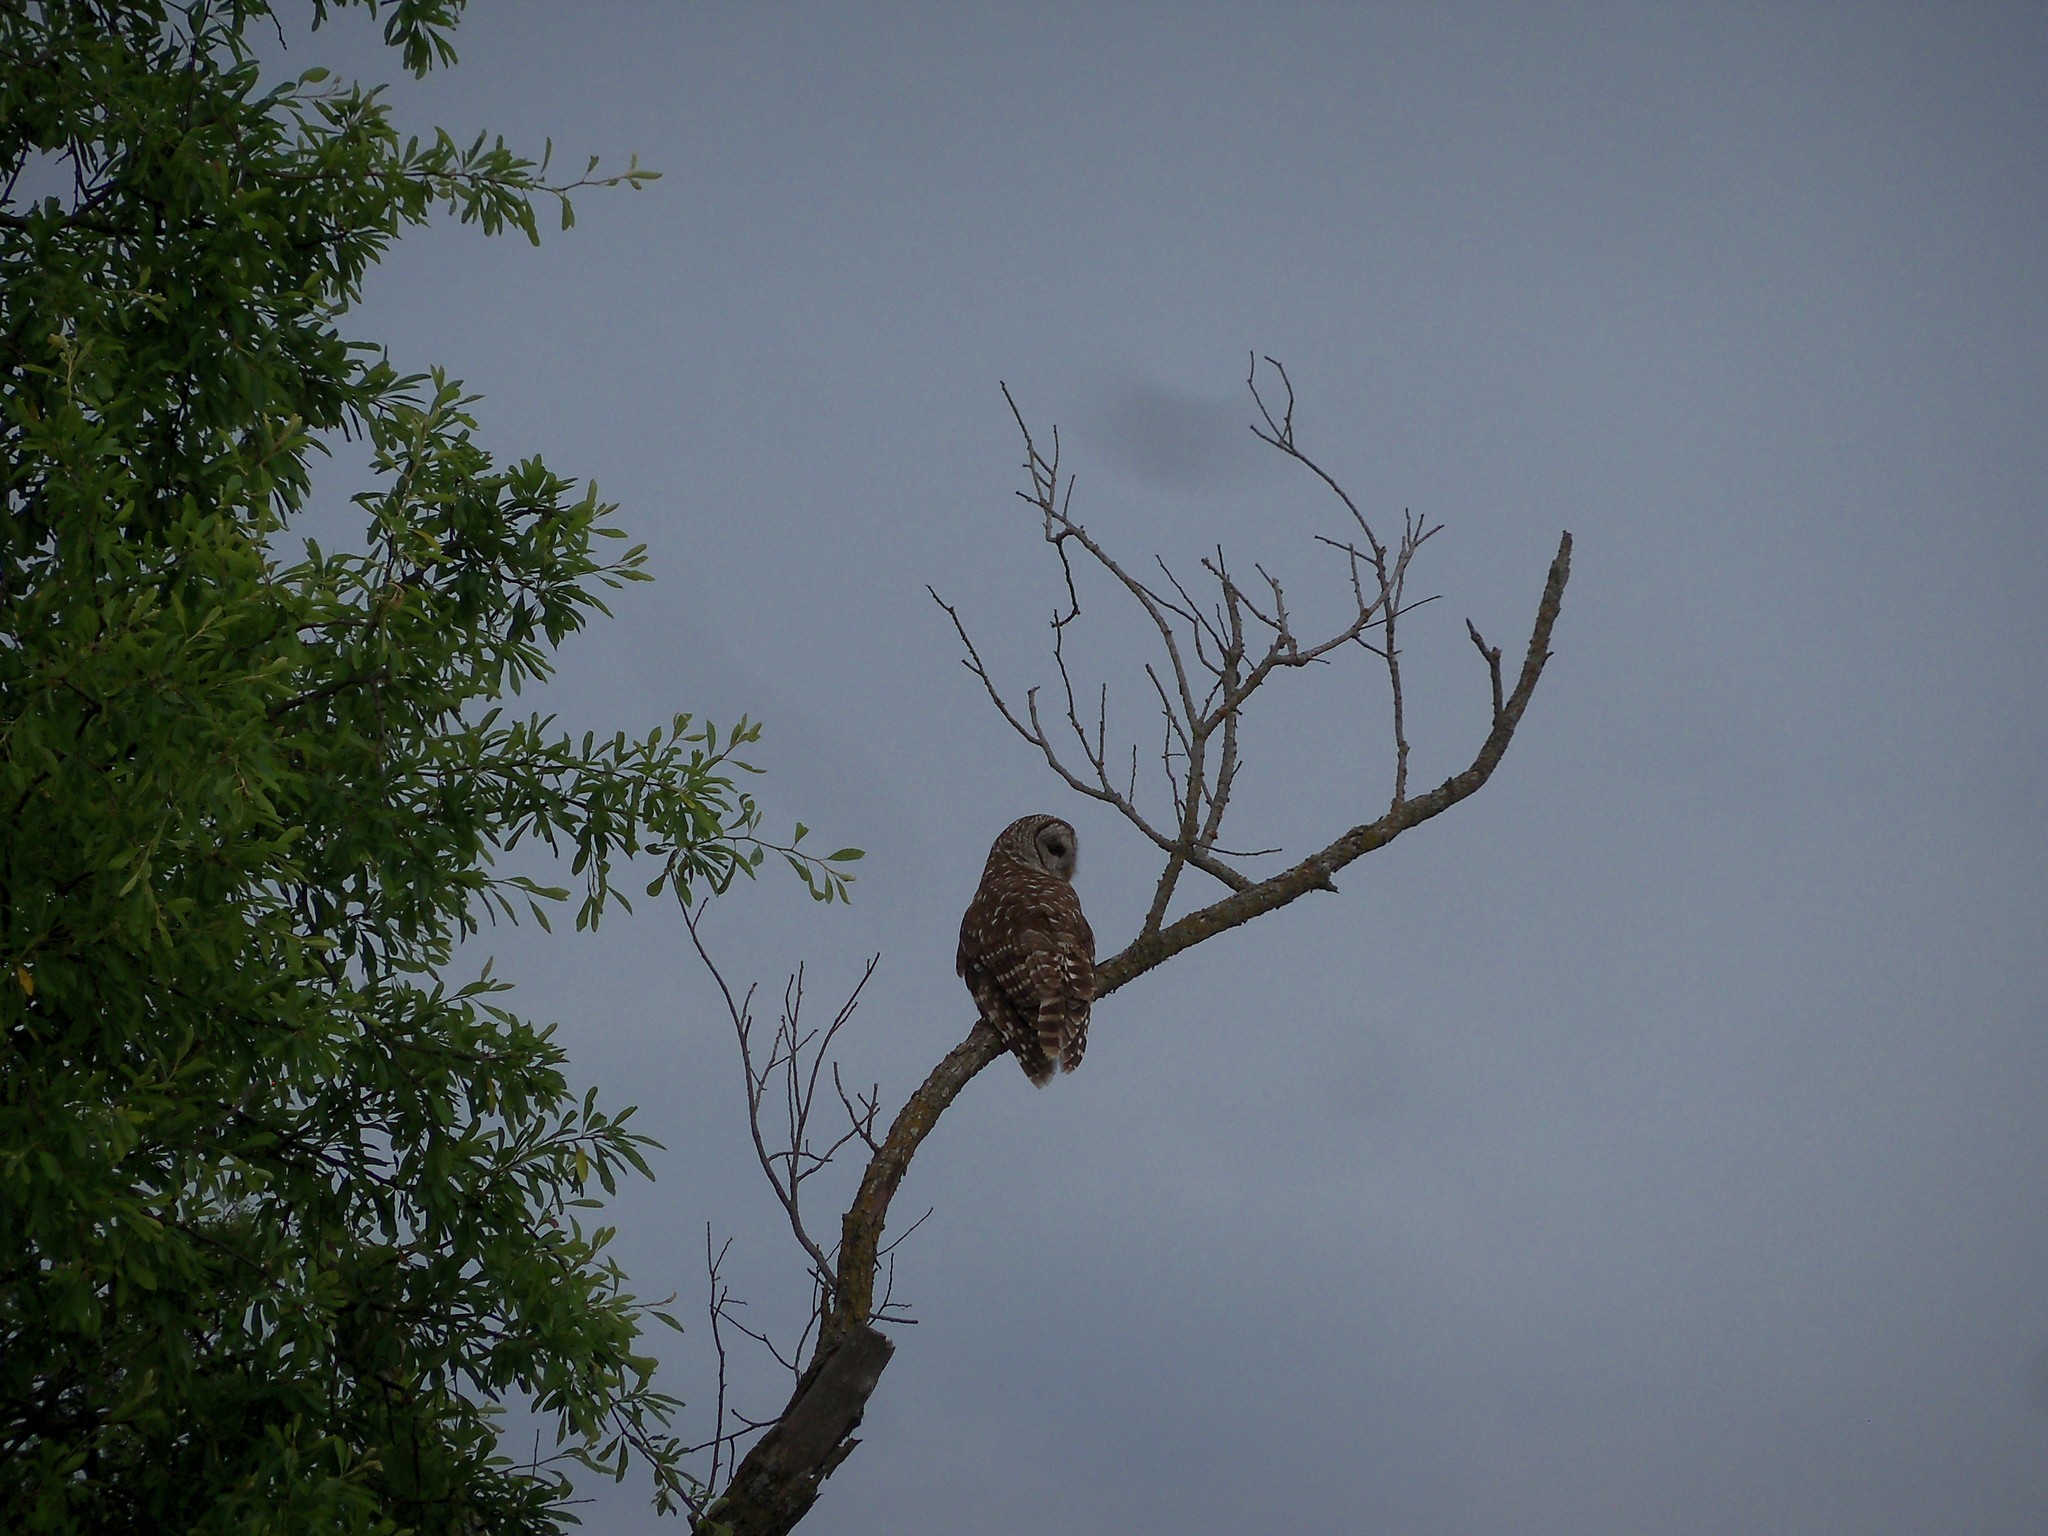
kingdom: Animalia
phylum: Chordata
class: Aves
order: Strigiformes
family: Strigidae
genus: Strix
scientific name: Strix varia
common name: Barred owl
